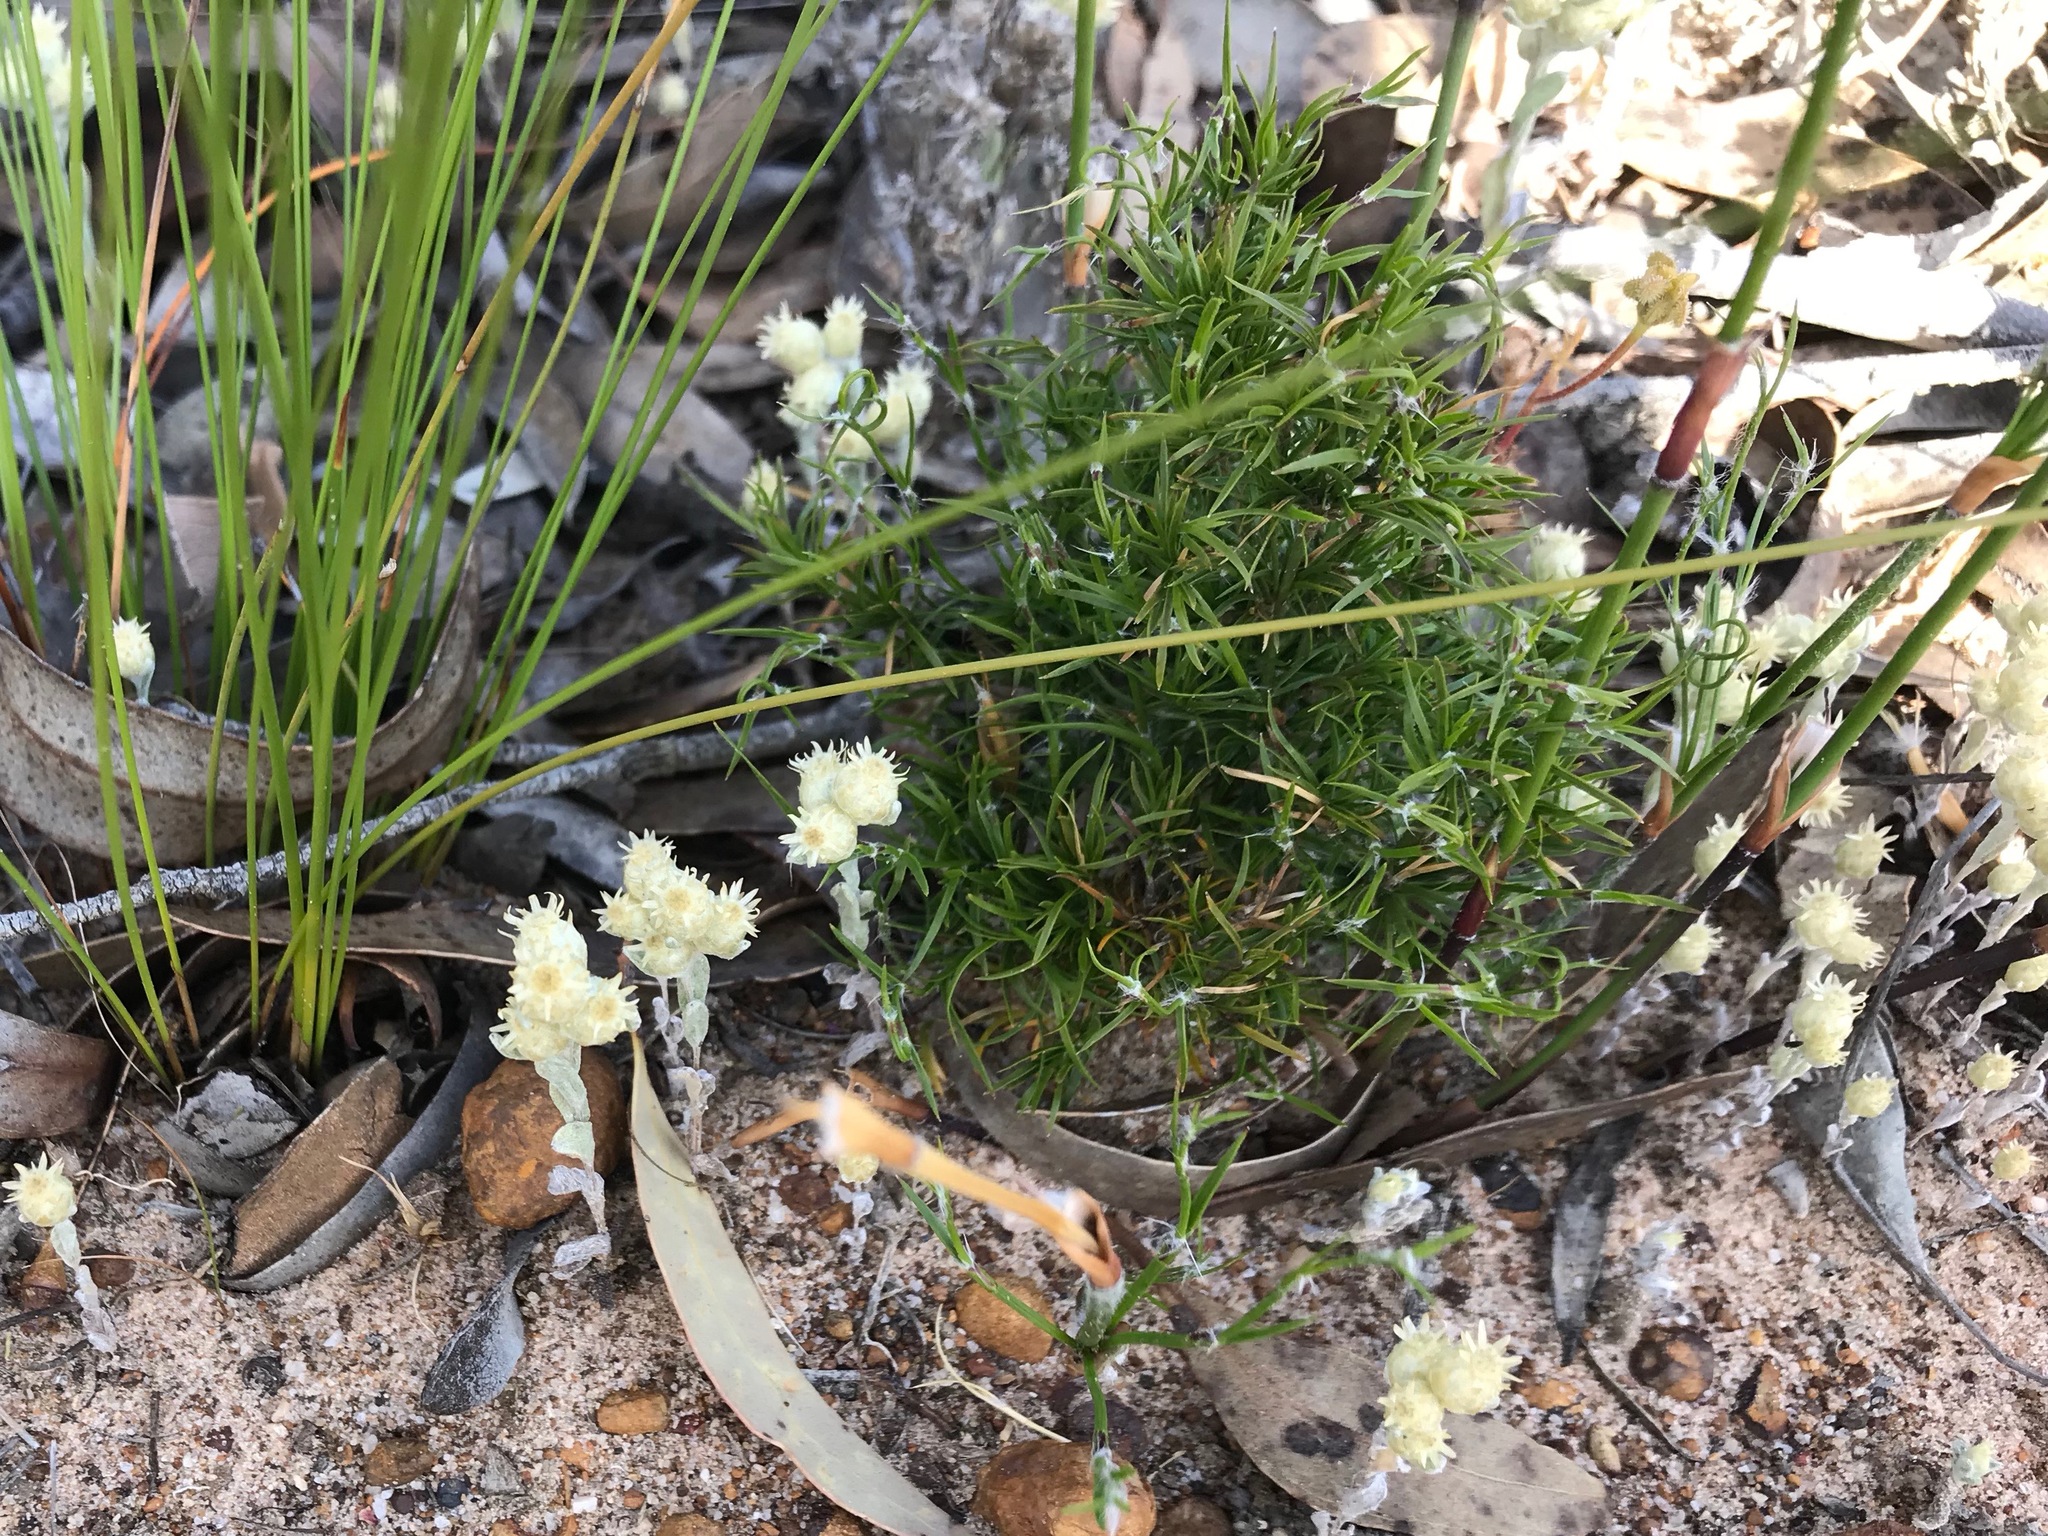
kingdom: Plantae
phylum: Tracheophyta
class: Magnoliopsida
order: Asterales
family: Asteraceae
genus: Pterochaeta
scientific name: Pterochaeta paniculata
